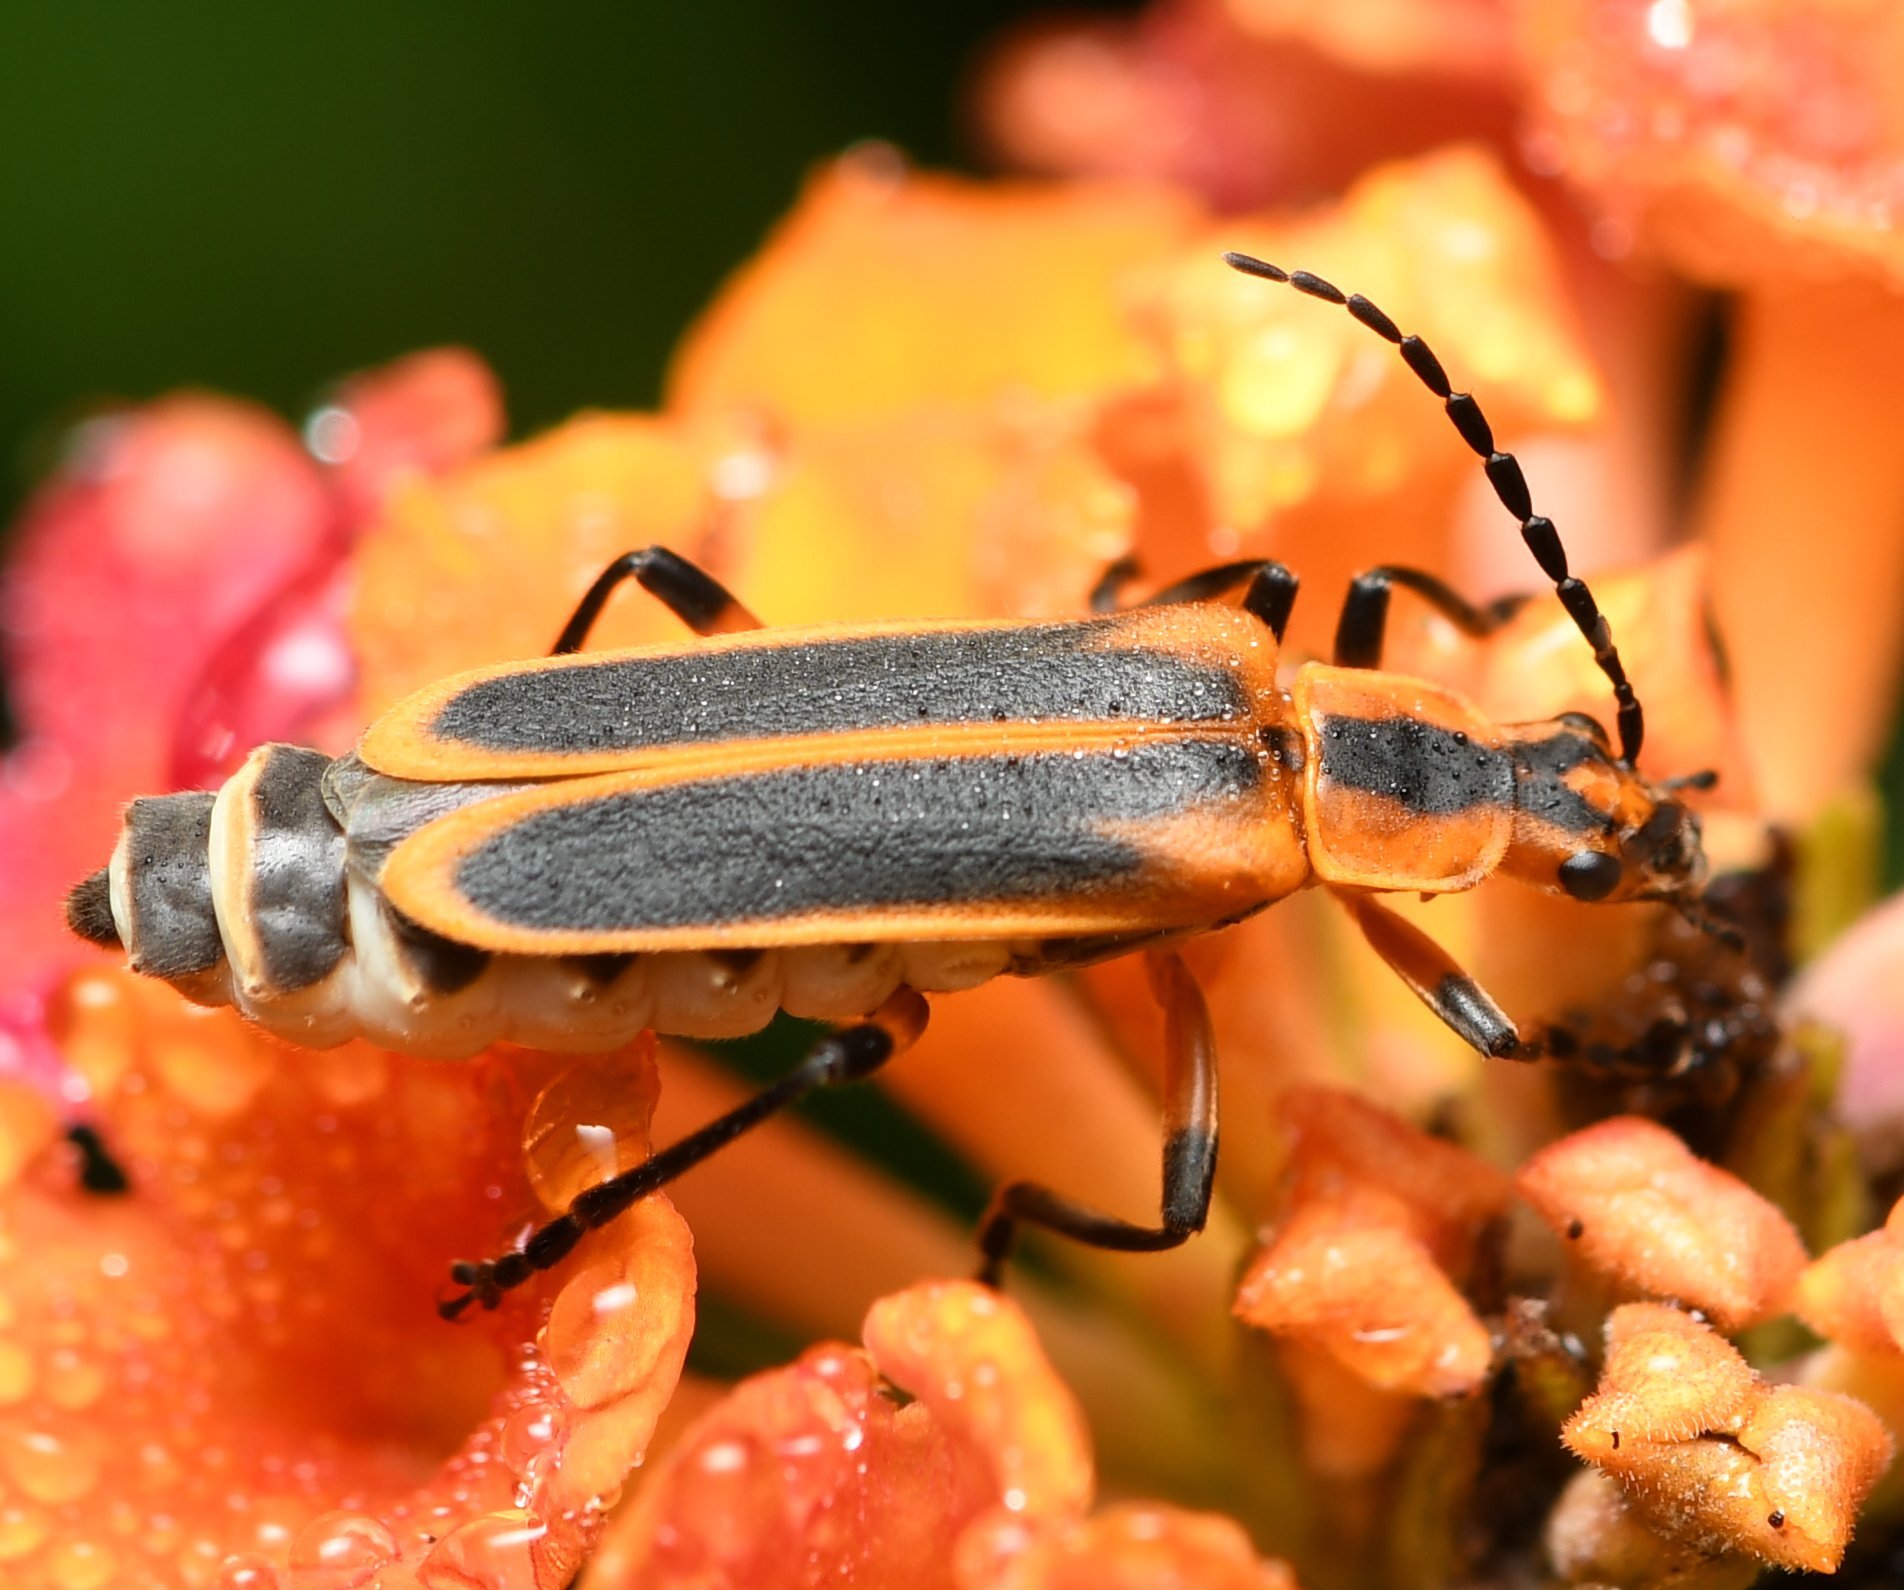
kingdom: Animalia
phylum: Arthropoda
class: Insecta
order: Coleoptera
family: Cantharidae
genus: Chauliognathus
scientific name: Chauliognathus marginatus
